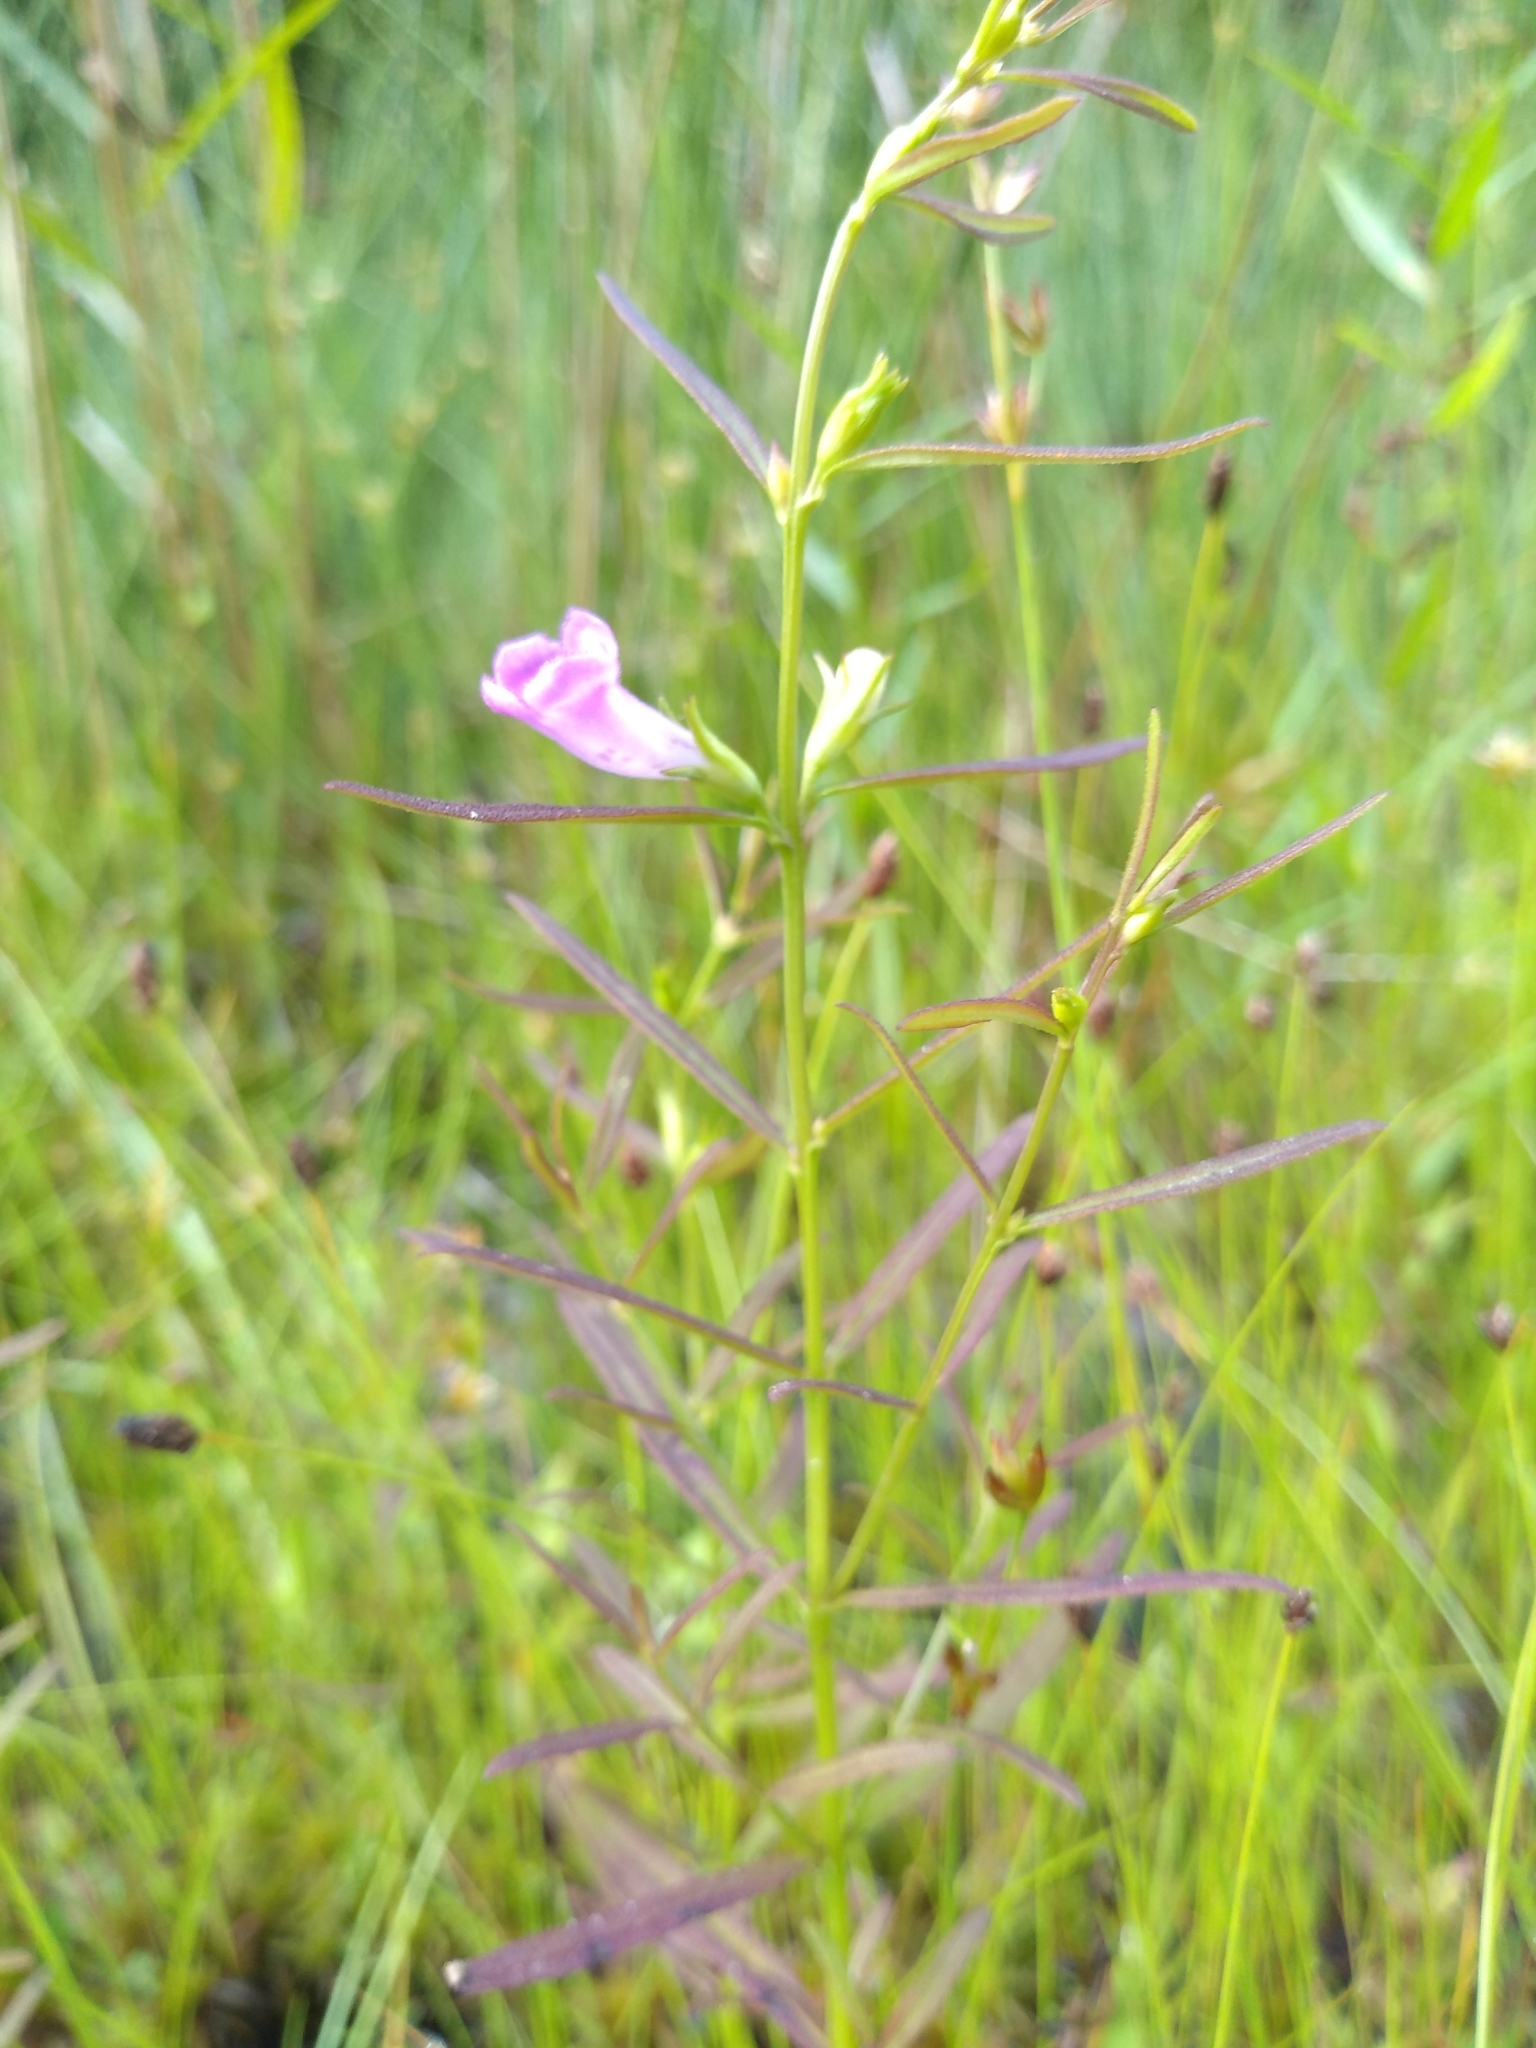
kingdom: Plantae
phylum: Tracheophyta
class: Magnoliopsida
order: Lamiales
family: Orobanchaceae
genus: Agalinis
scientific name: Agalinis neoscotica
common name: Middleton false foxglove
